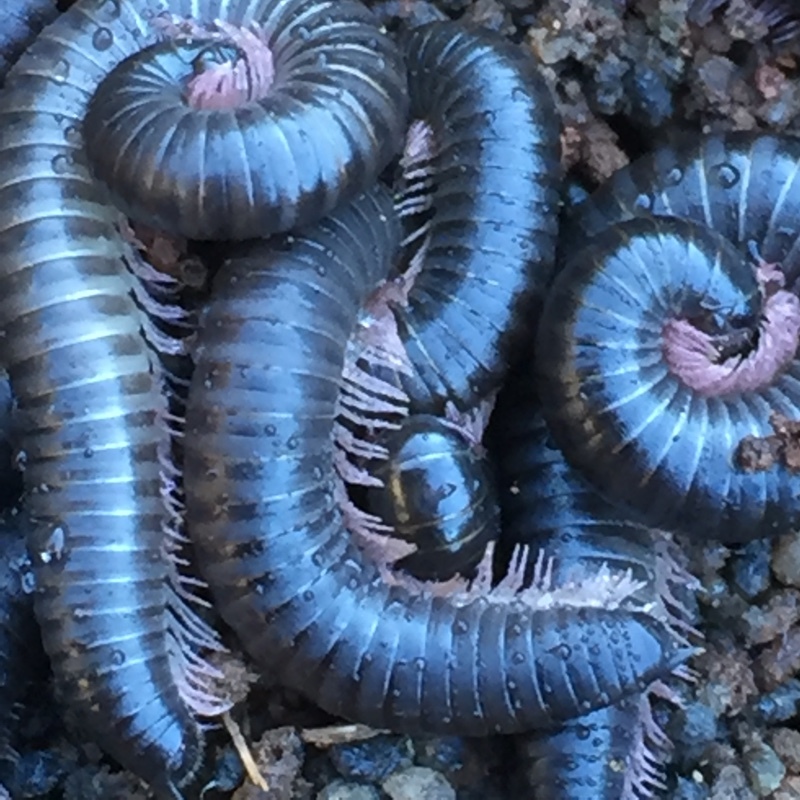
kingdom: Animalia
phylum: Arthropoda
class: Diplopoda
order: Julida
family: Julidae
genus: Ommatoiulus
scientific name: Ommatoiulus moreleti
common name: Portuguese millipede
